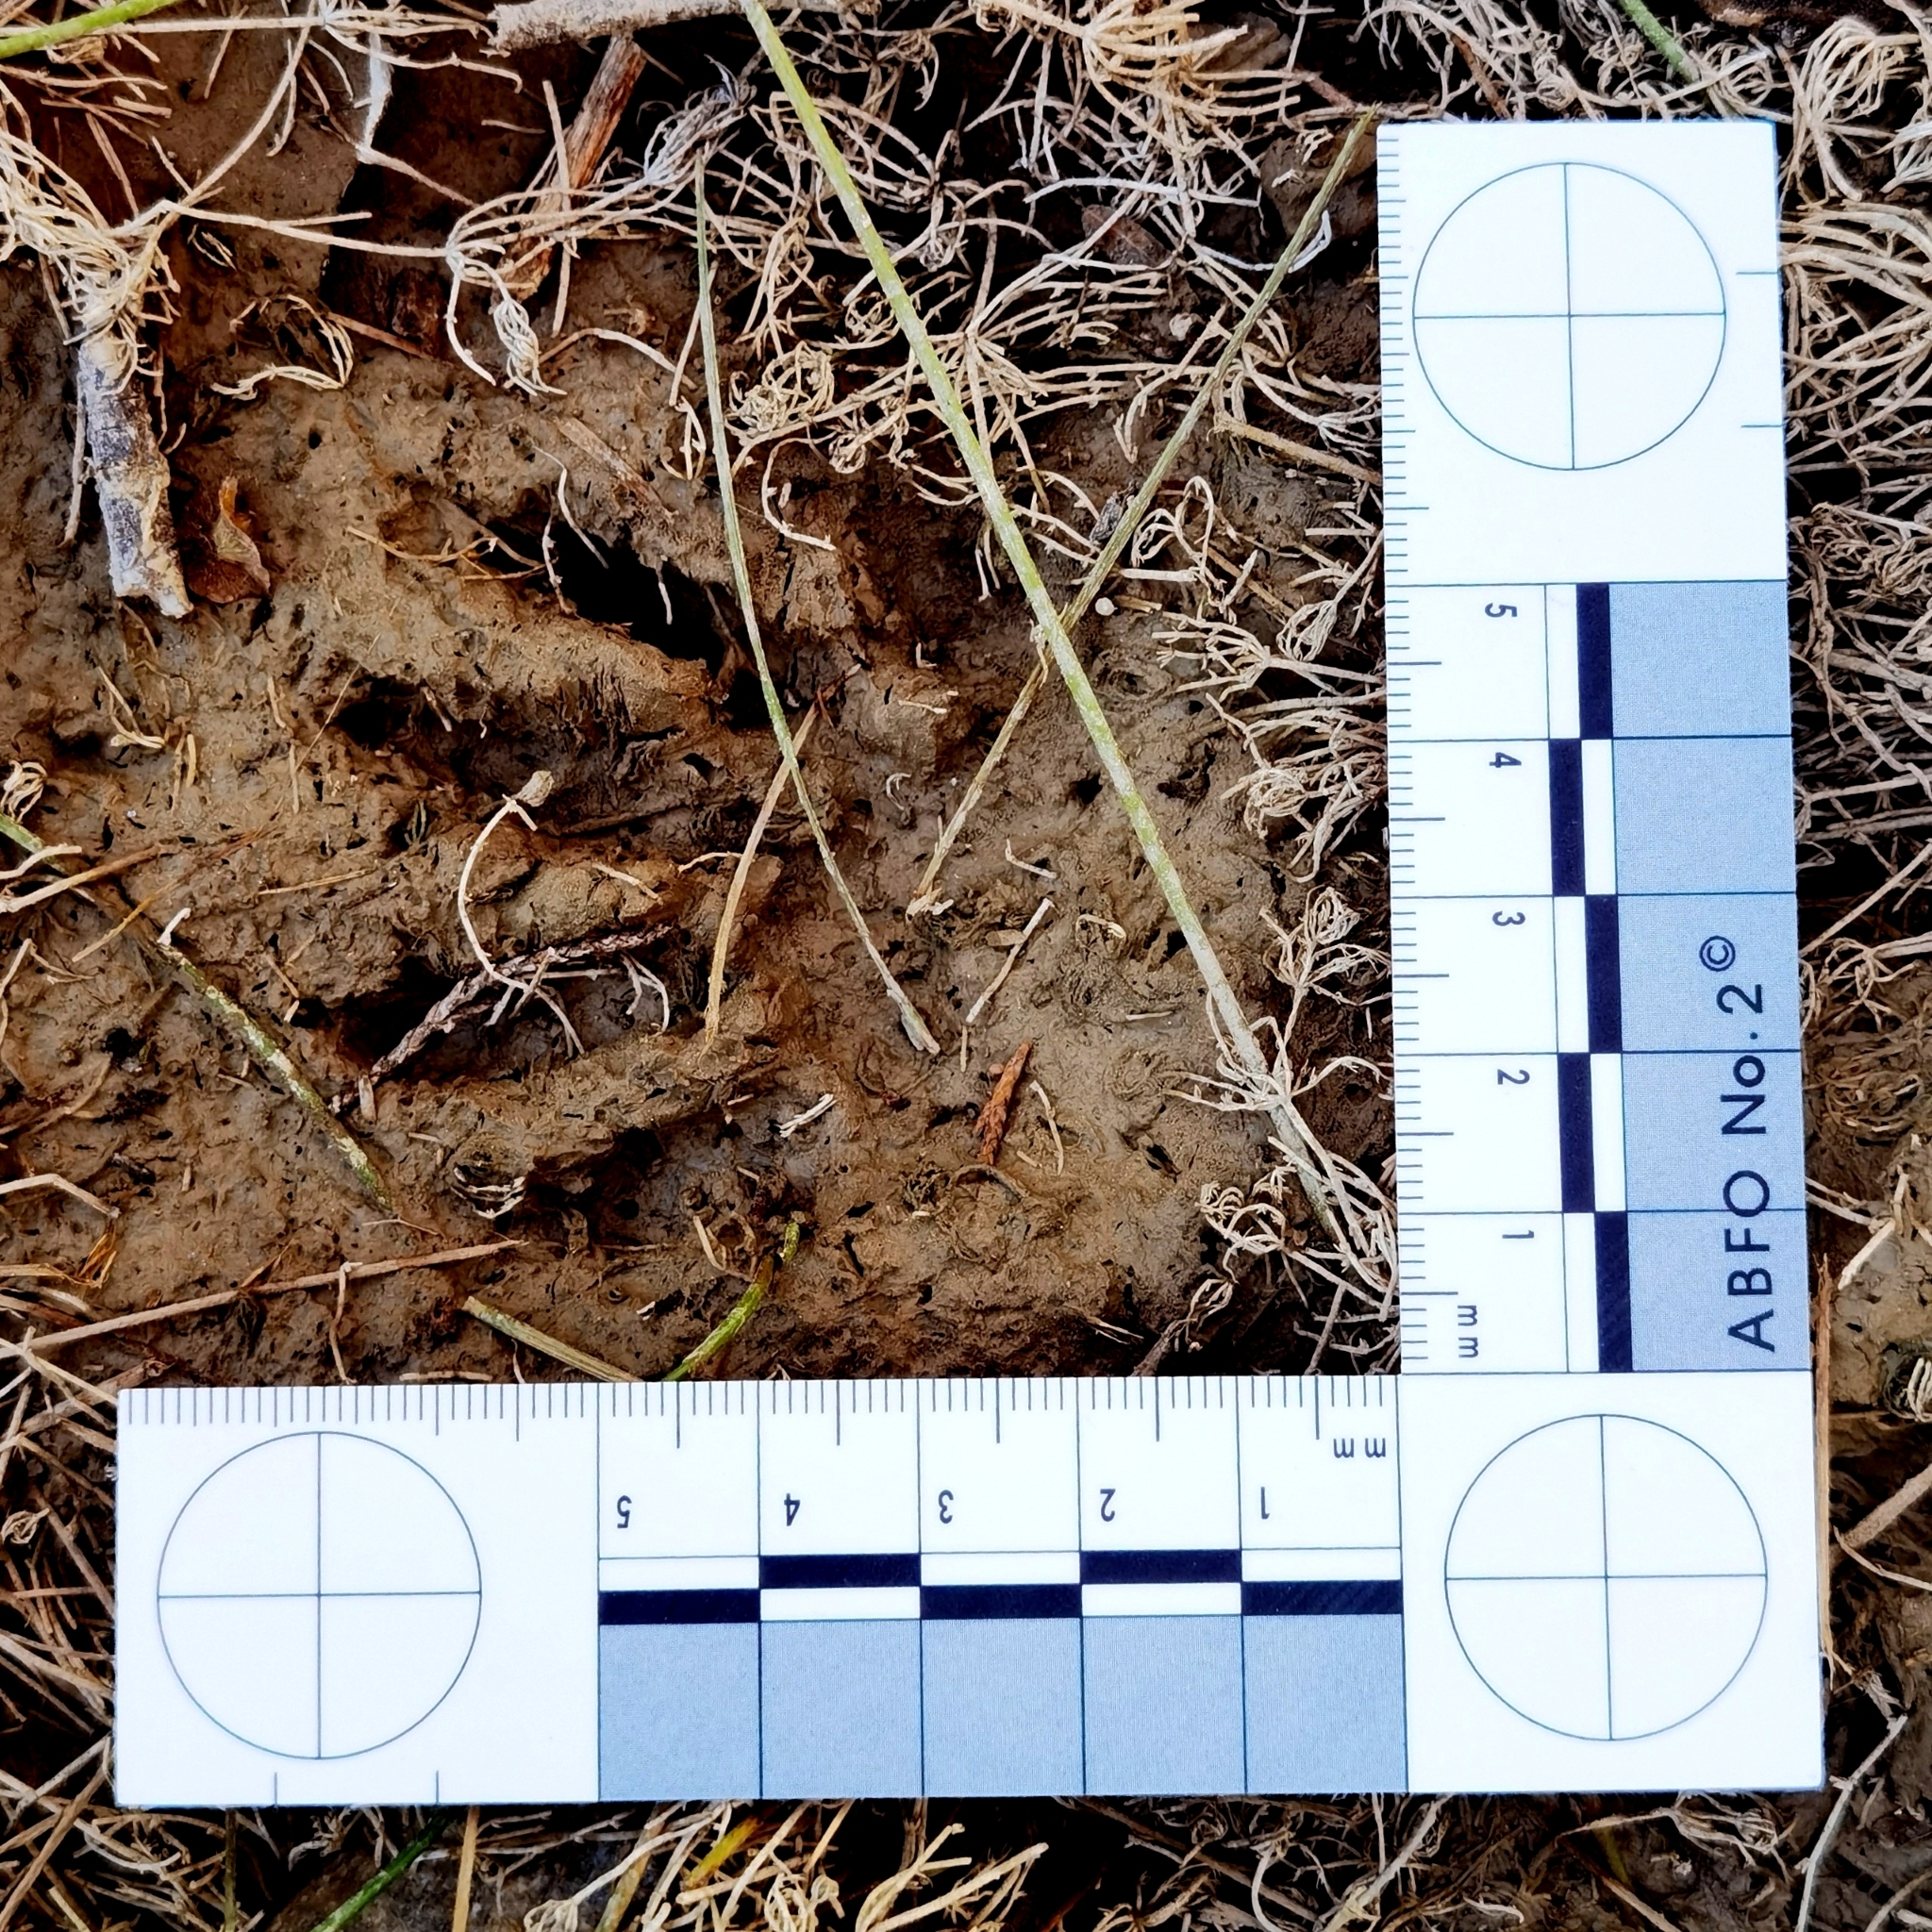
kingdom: Animalia
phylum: Chordata
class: Mammalia
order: Carnivora
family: Procyonidae
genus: Procyon
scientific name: Procyon lotor
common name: Raccoon
